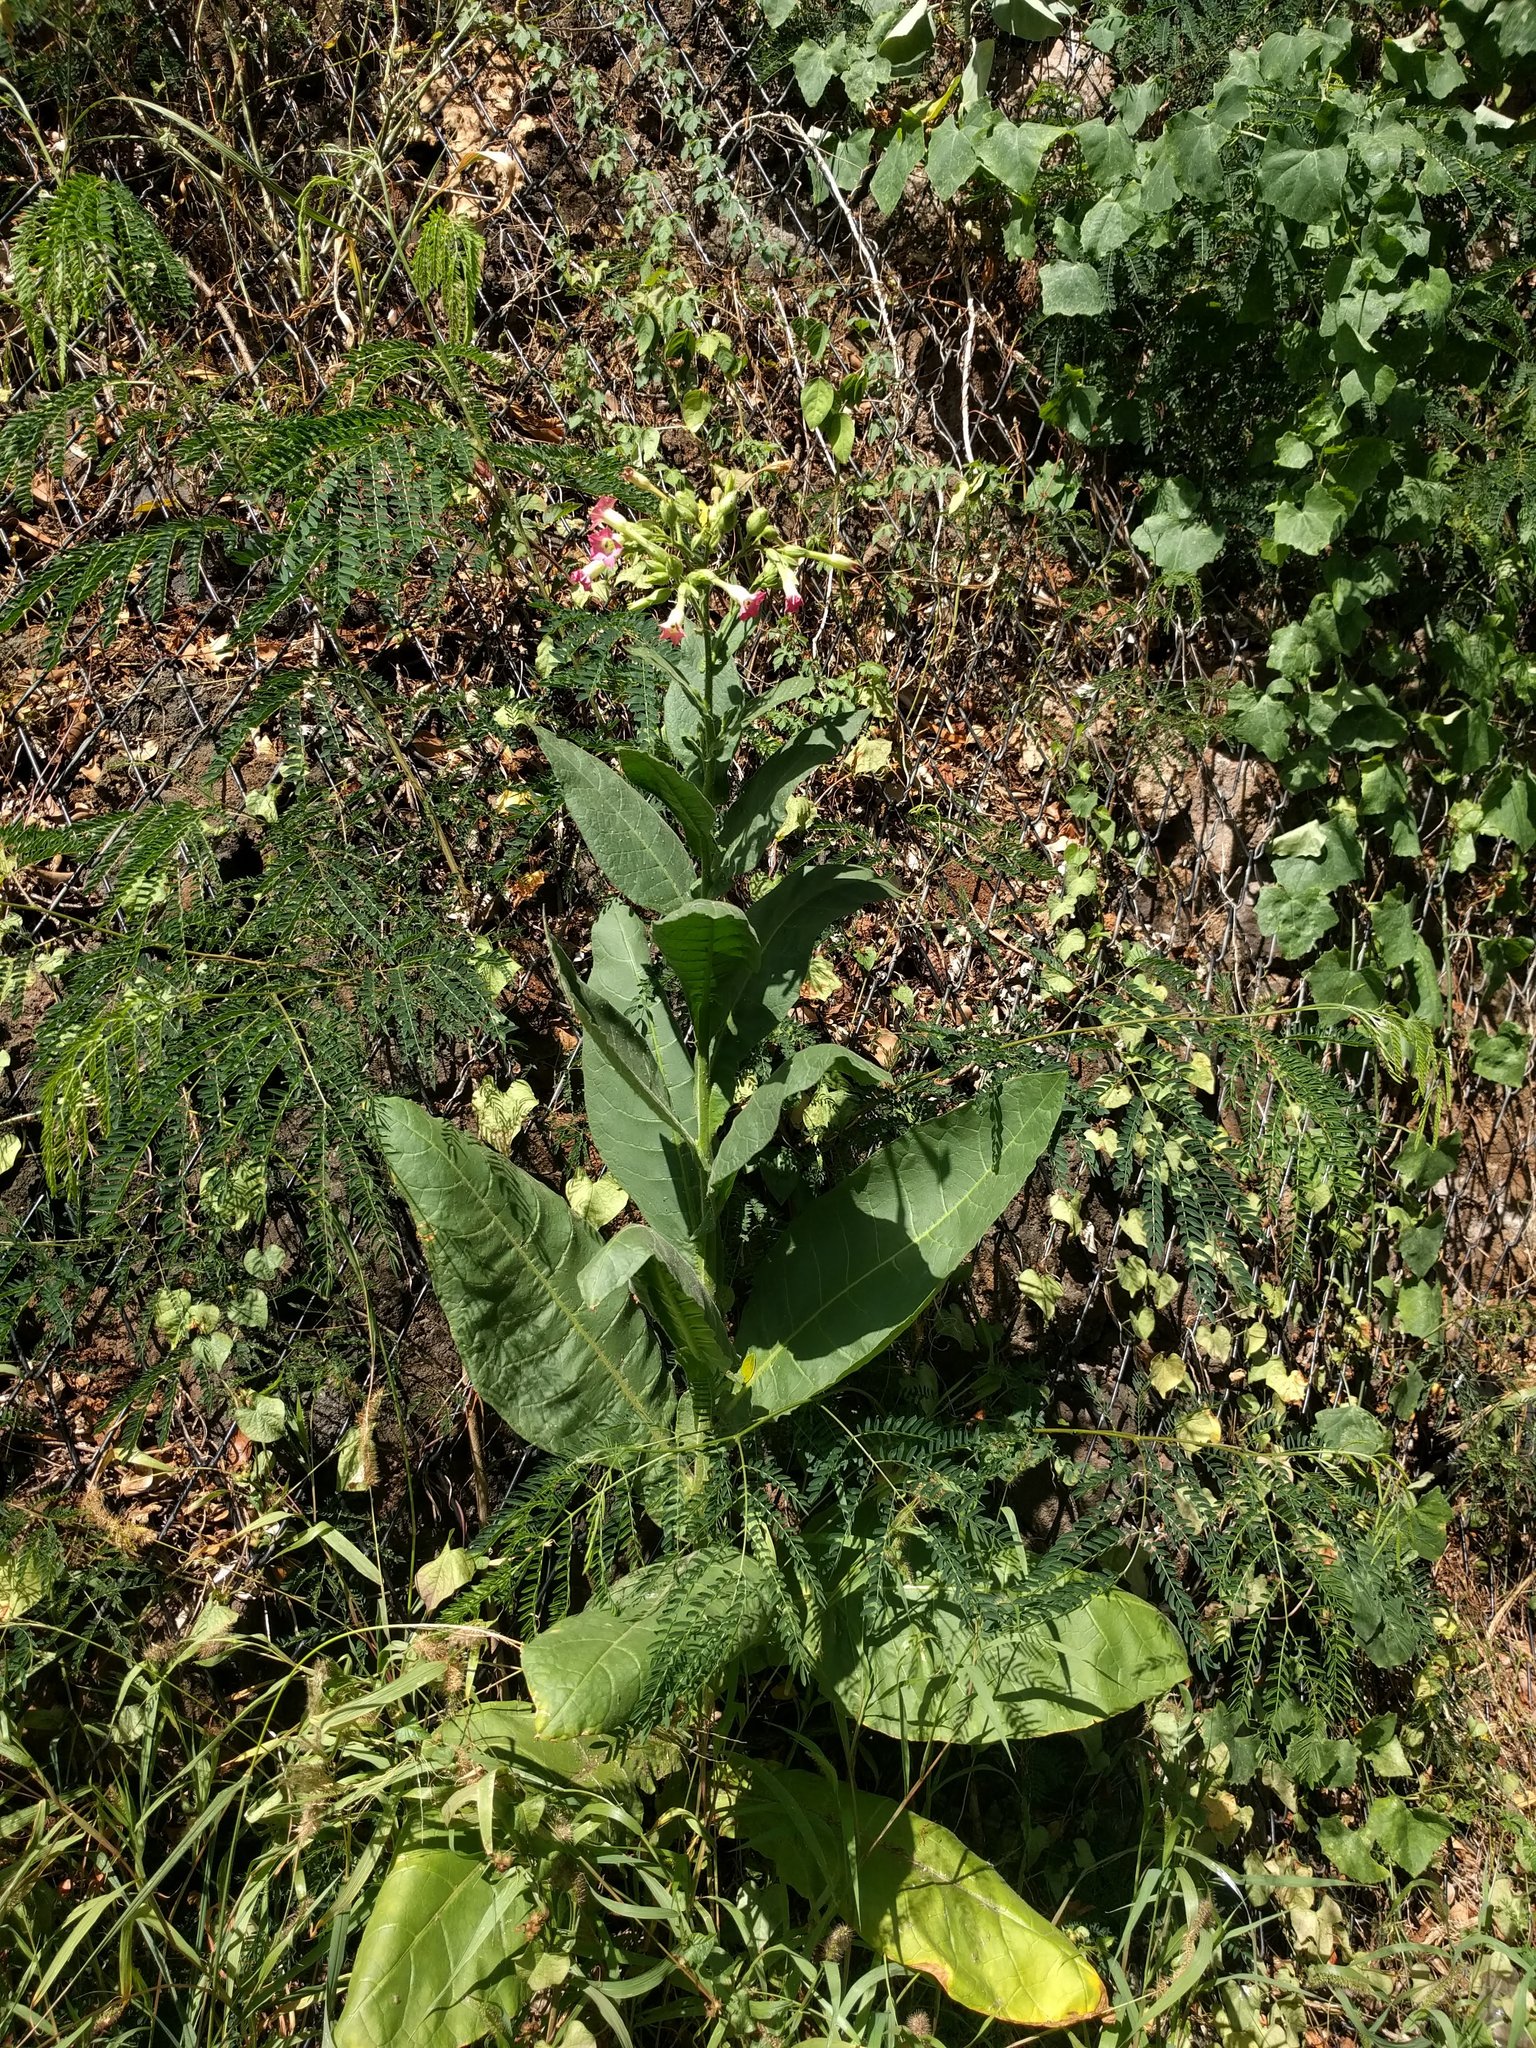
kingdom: Plantae
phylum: Tracheophyta
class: Magnoliopsida
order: Solanales
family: Solanaceae
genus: Nicotiana
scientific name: Nicotiana tabacum
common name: Tobacco
